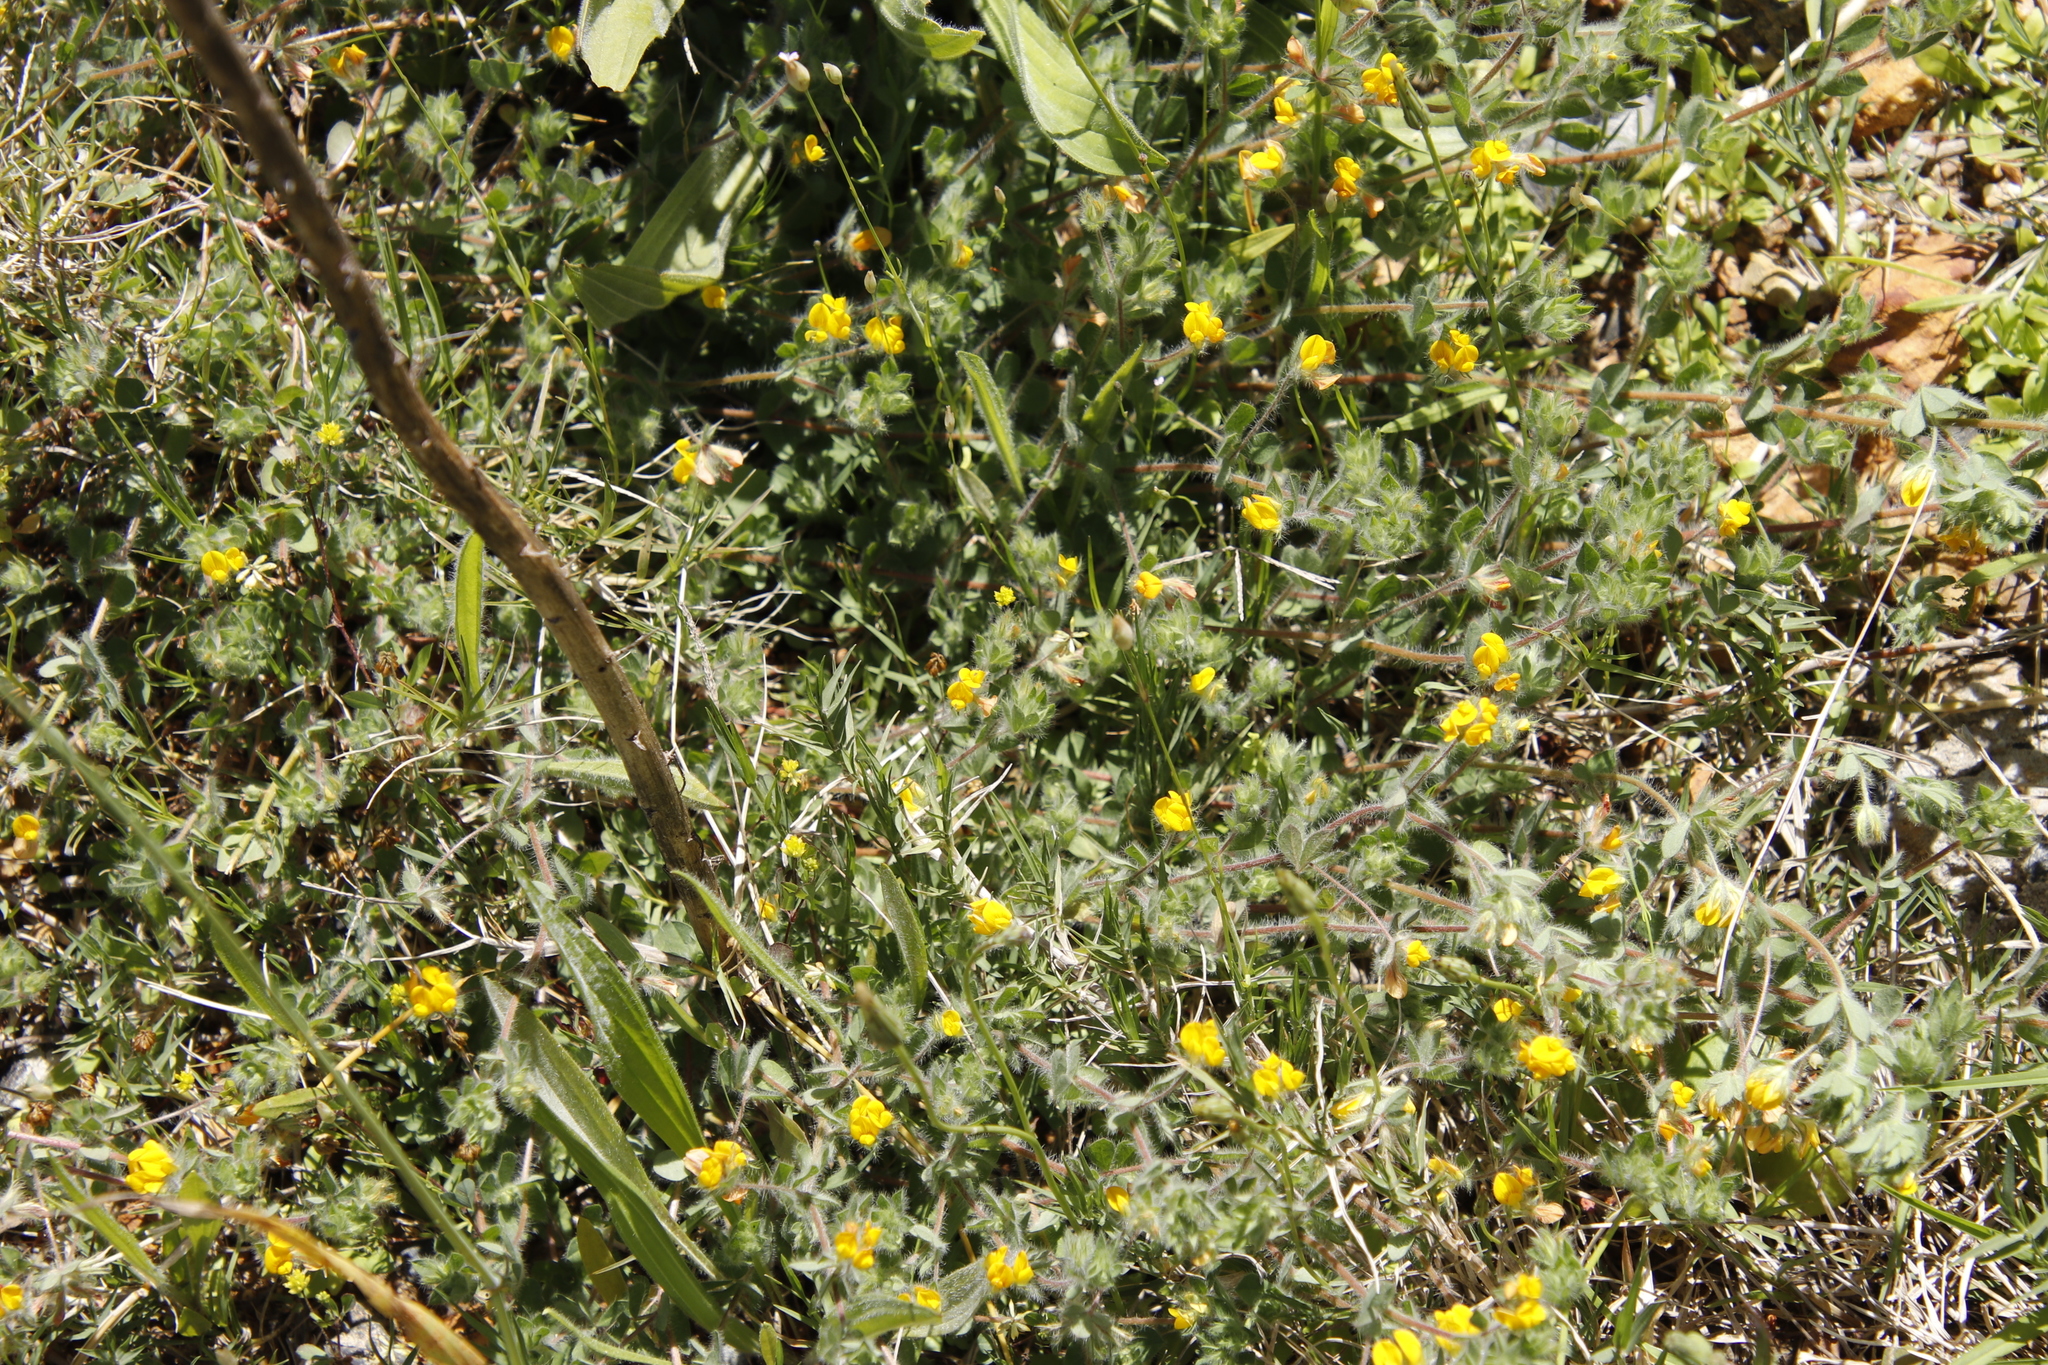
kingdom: Plantae
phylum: Tracheophyta
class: Magnoliopsida
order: Fabales
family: Fabaceae
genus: Lotus
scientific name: Lotus subbiflorus
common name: Hairy bird's-foot trefoil
